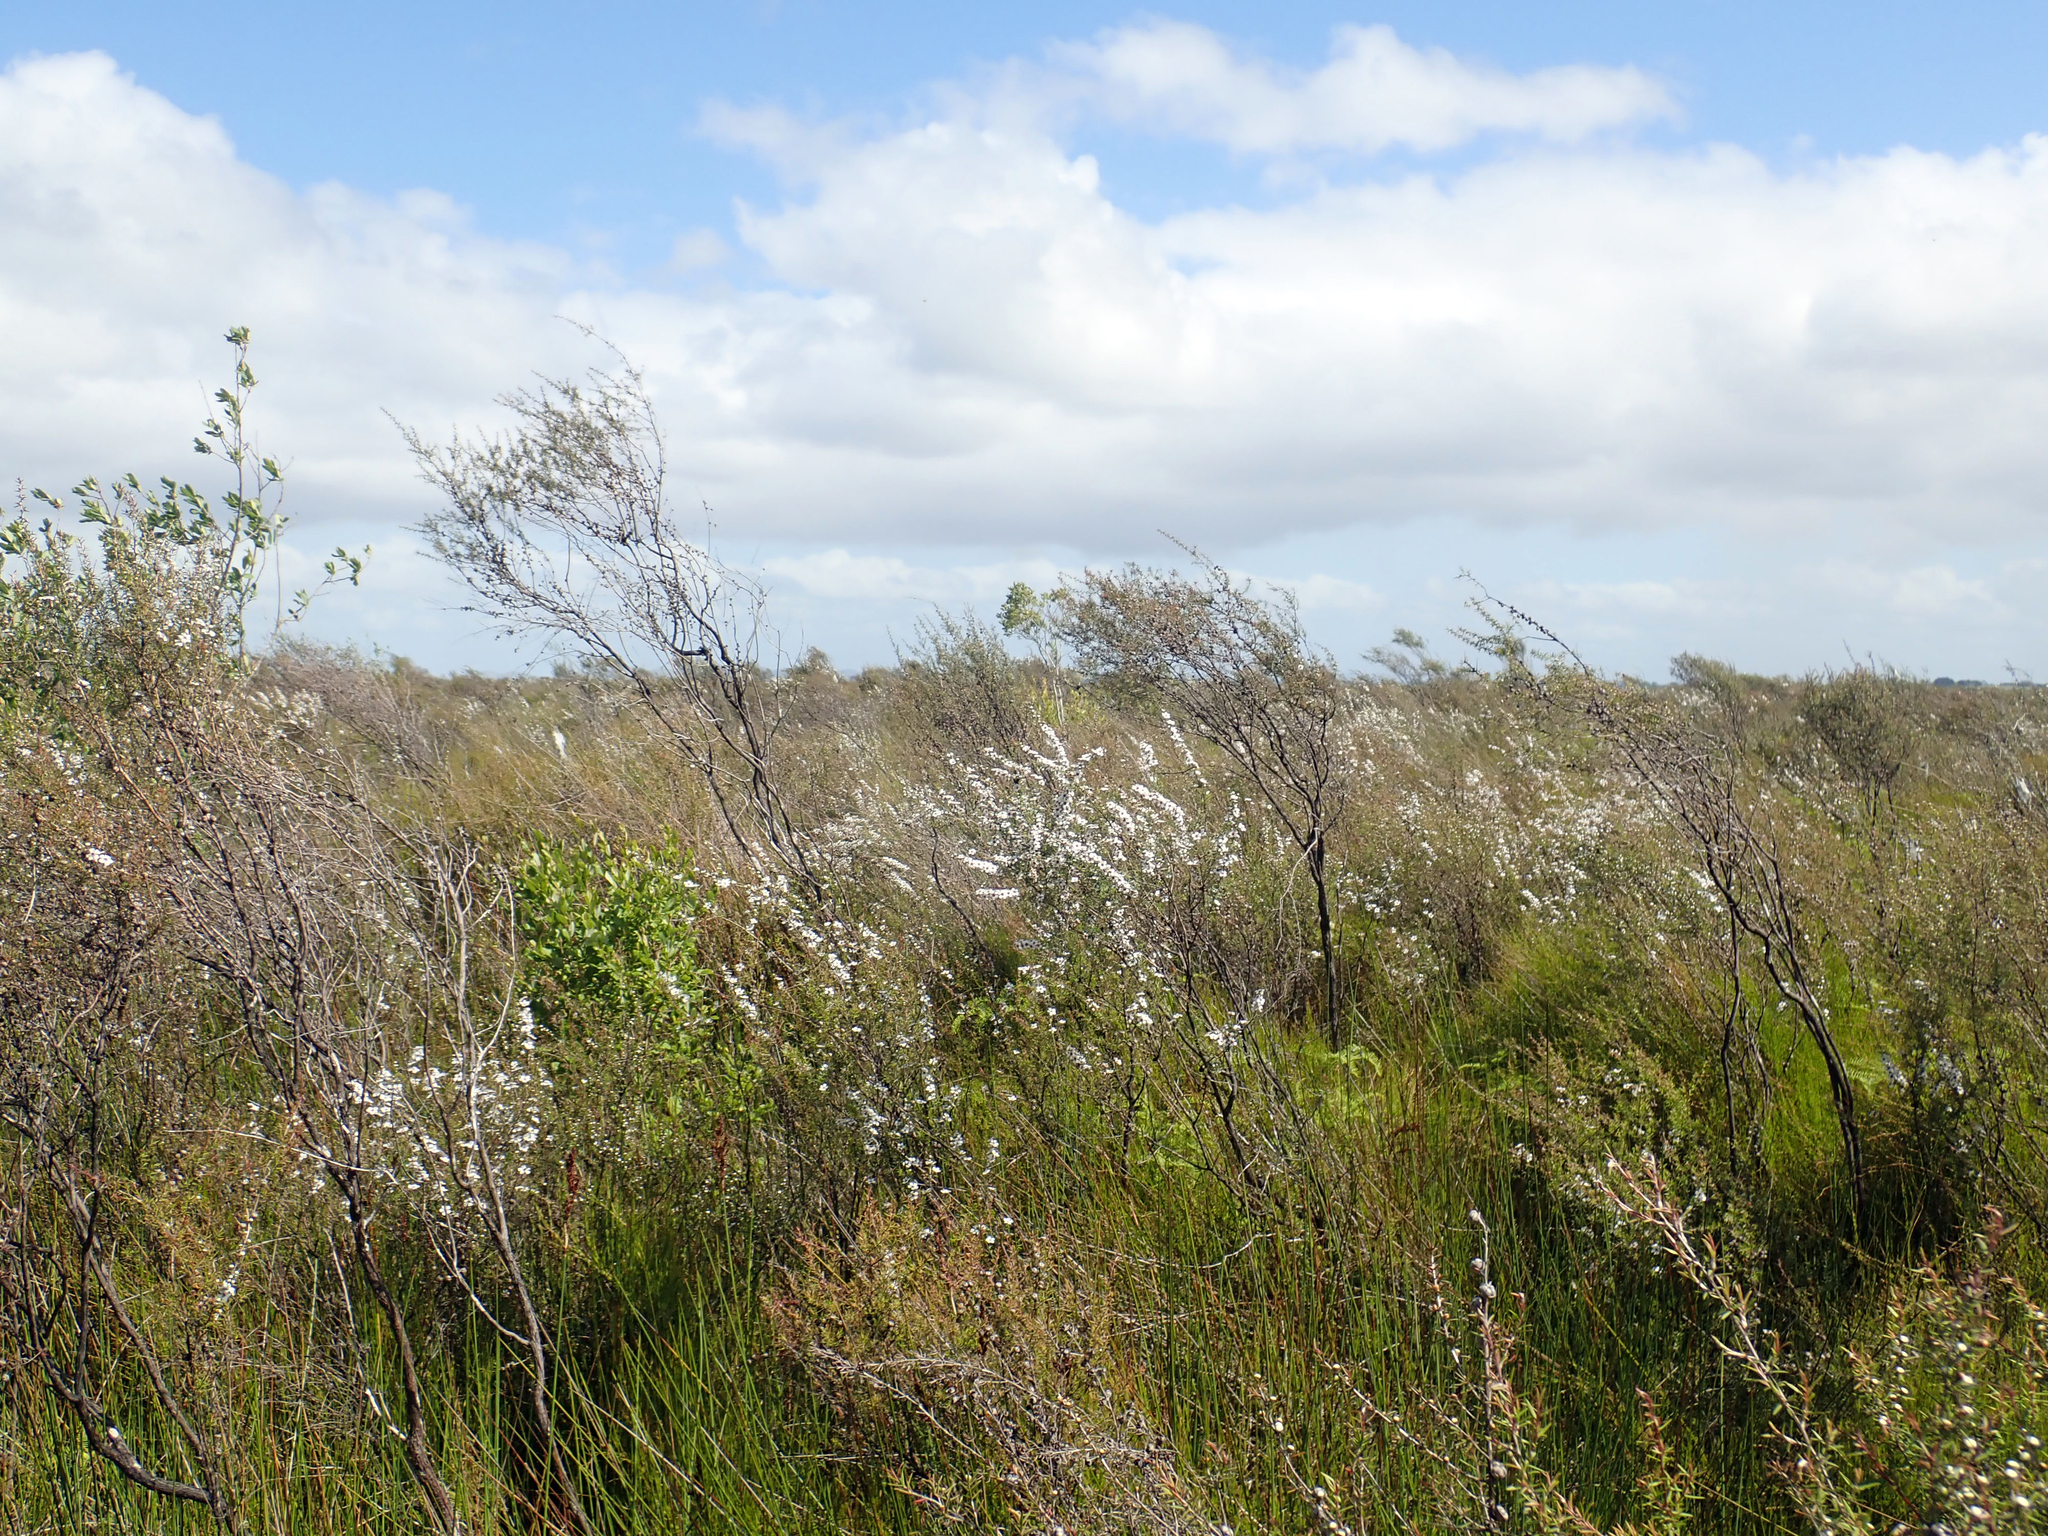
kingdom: Plantae
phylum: Tracheophyta
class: Magnoliopsida
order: Myrtales
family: Myrtaceae
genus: Leptospermum
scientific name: Leptospermum repo
